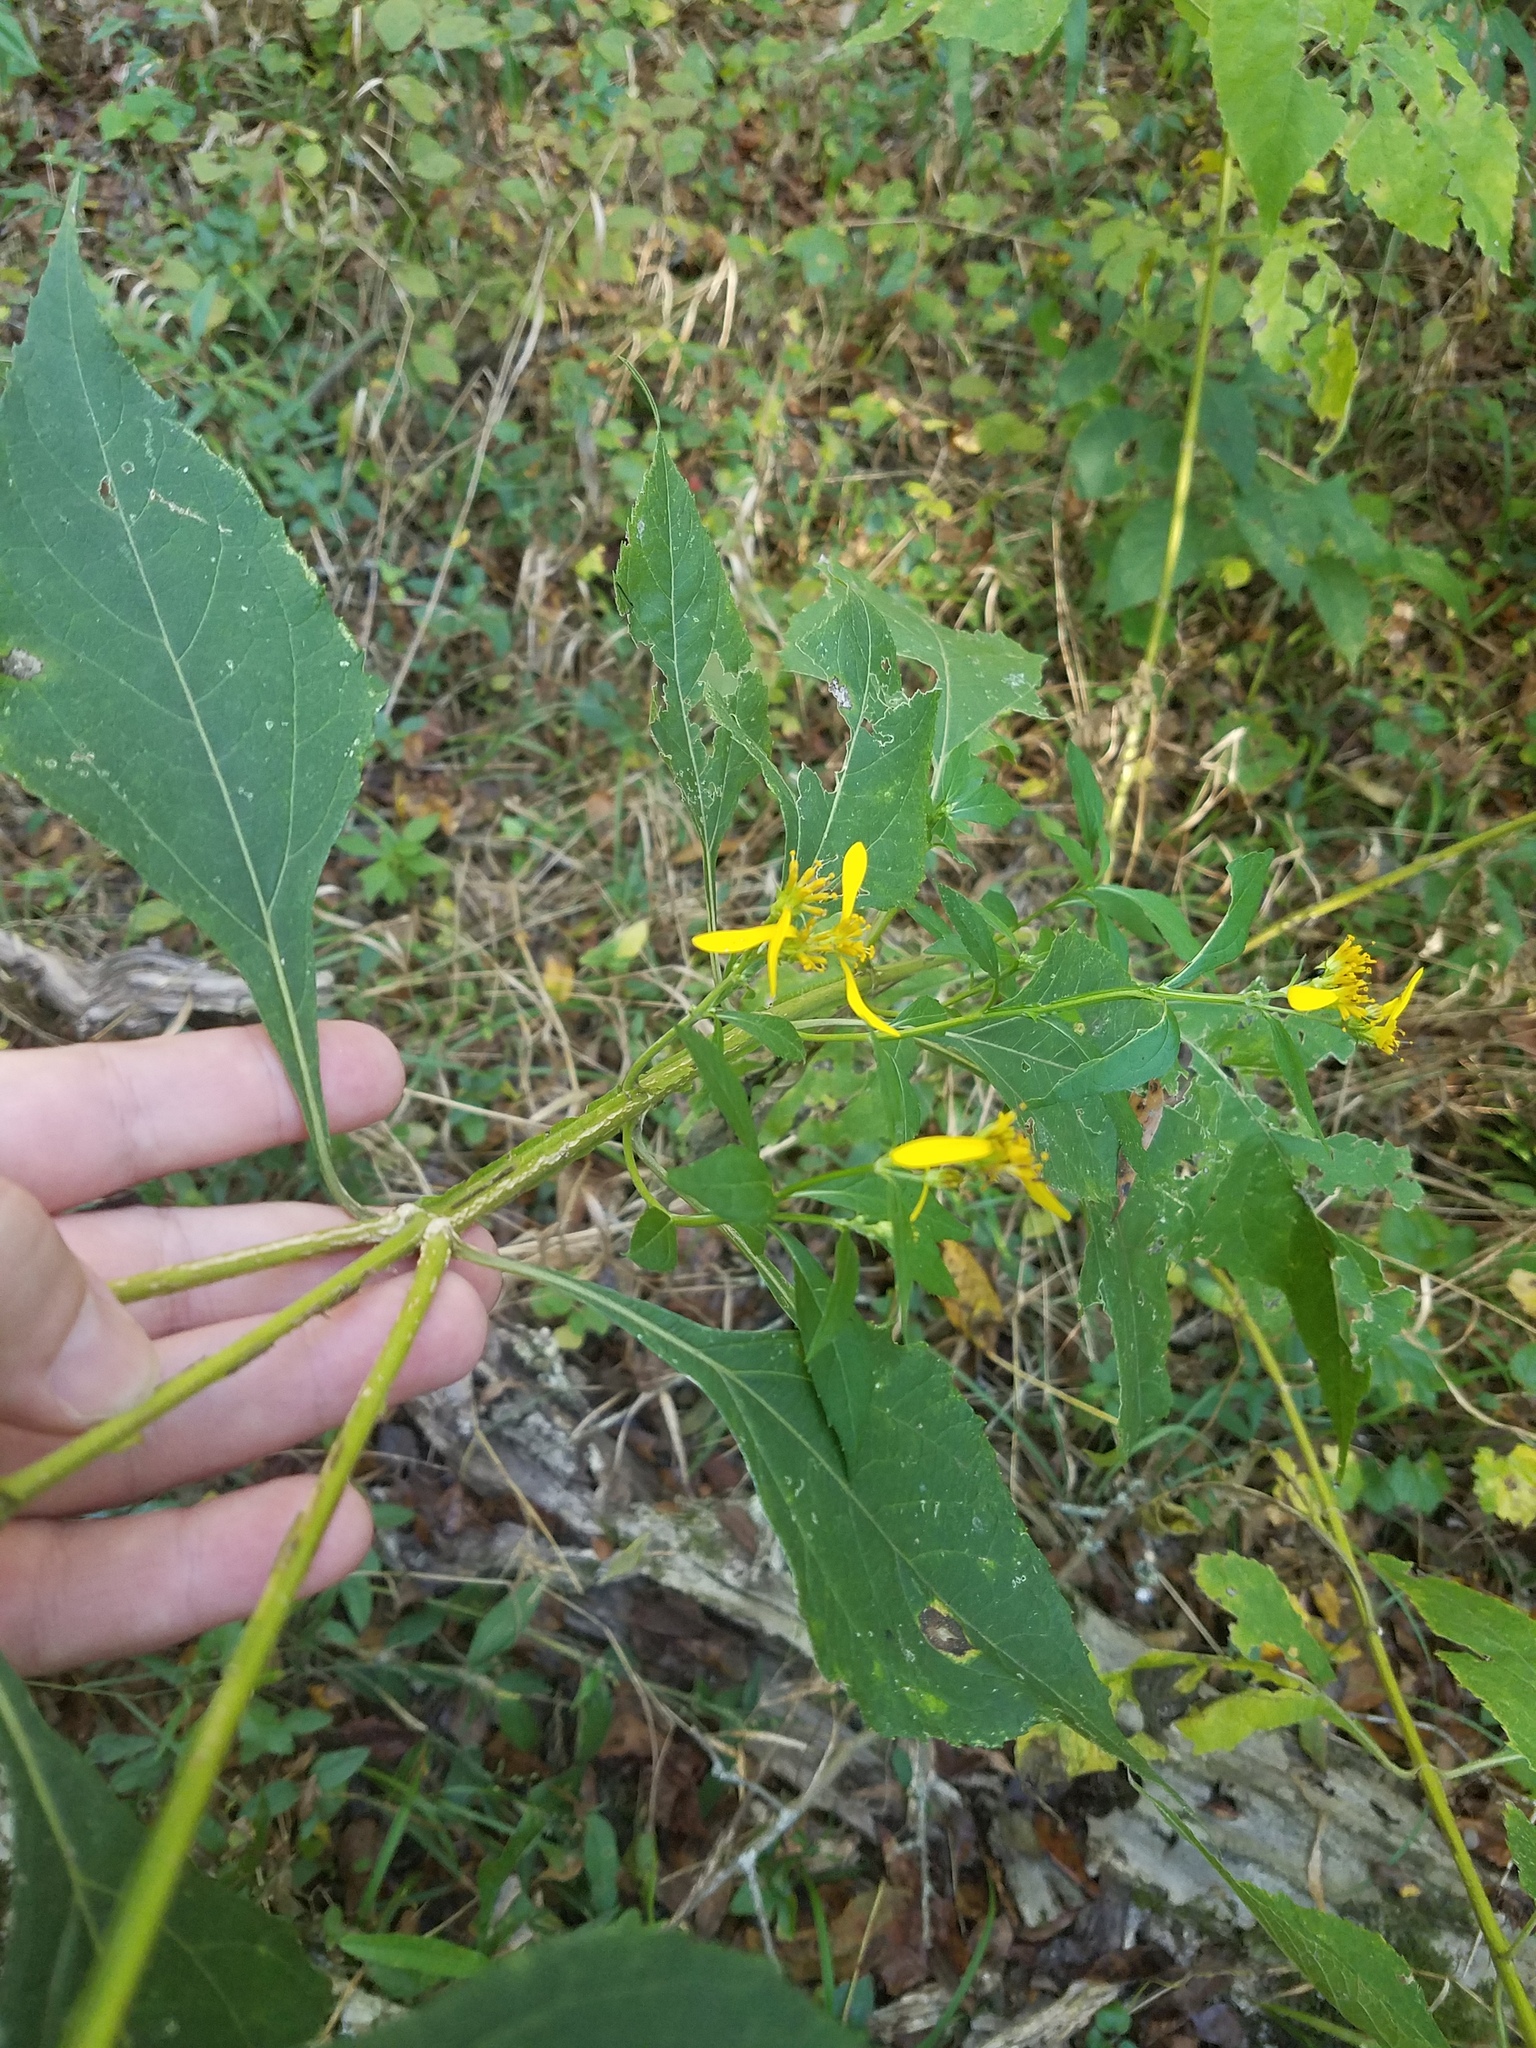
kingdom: Plantae
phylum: Tracheophyta
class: Magnoliopsida
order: Asterales
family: Asteraceae
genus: Verbesina
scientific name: Verbesina occidentalis
